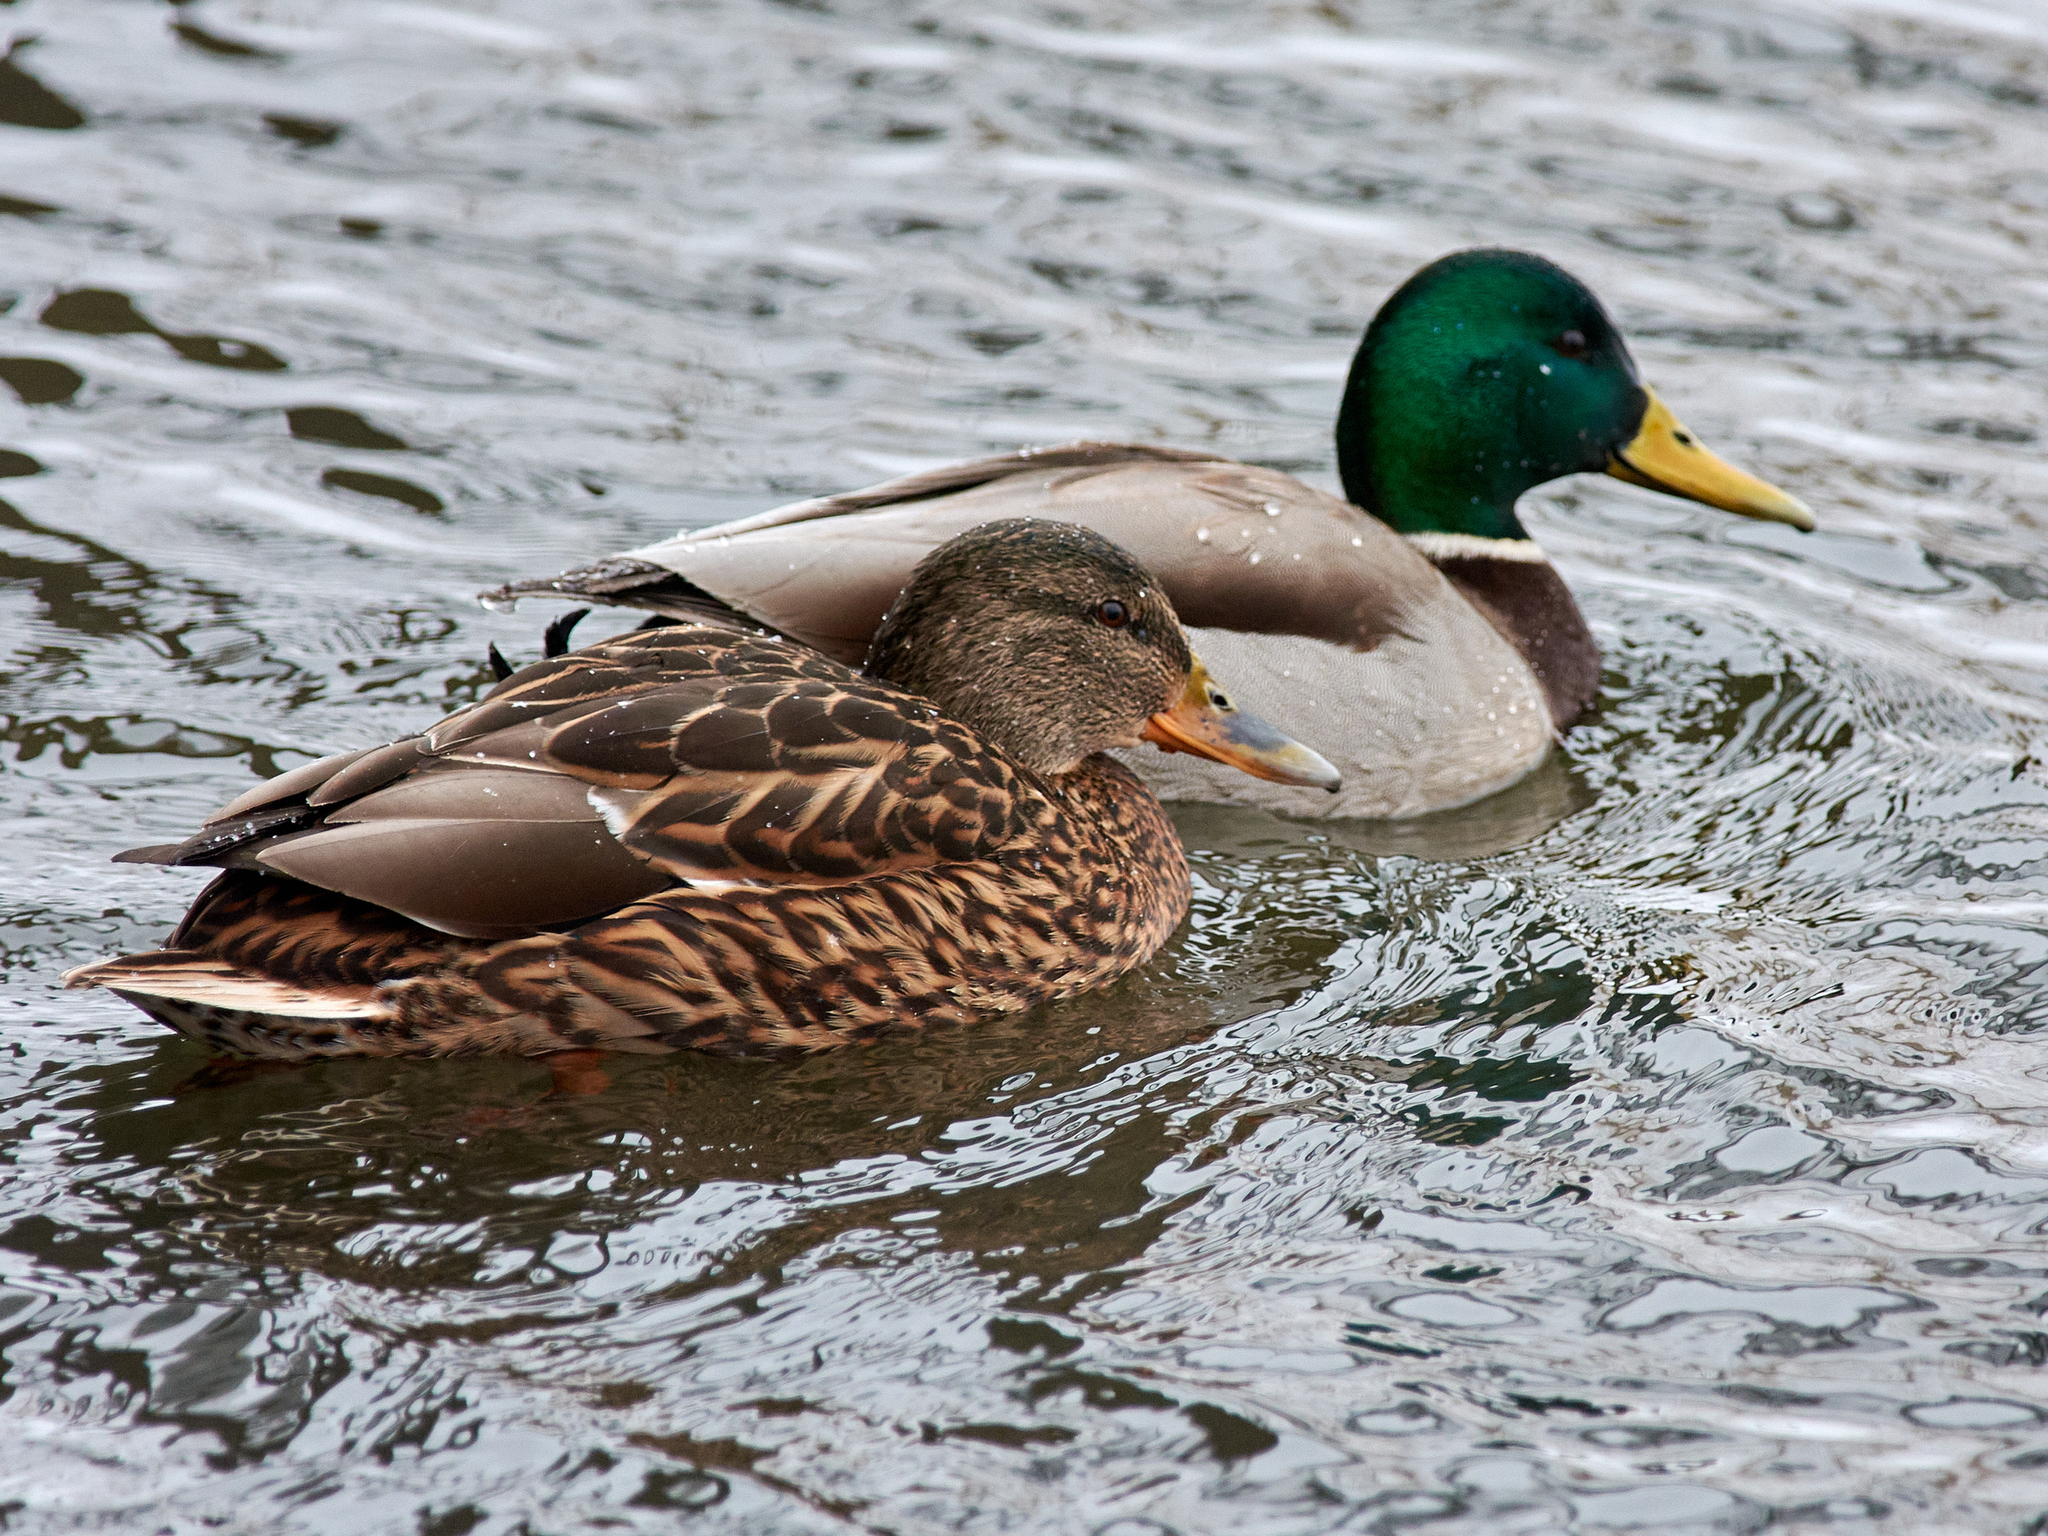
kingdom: Animalia
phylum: Chordata
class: Aves
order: Anseriformes
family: Anatidae
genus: Anas
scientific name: Anas platyrhynchos
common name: Mallard
